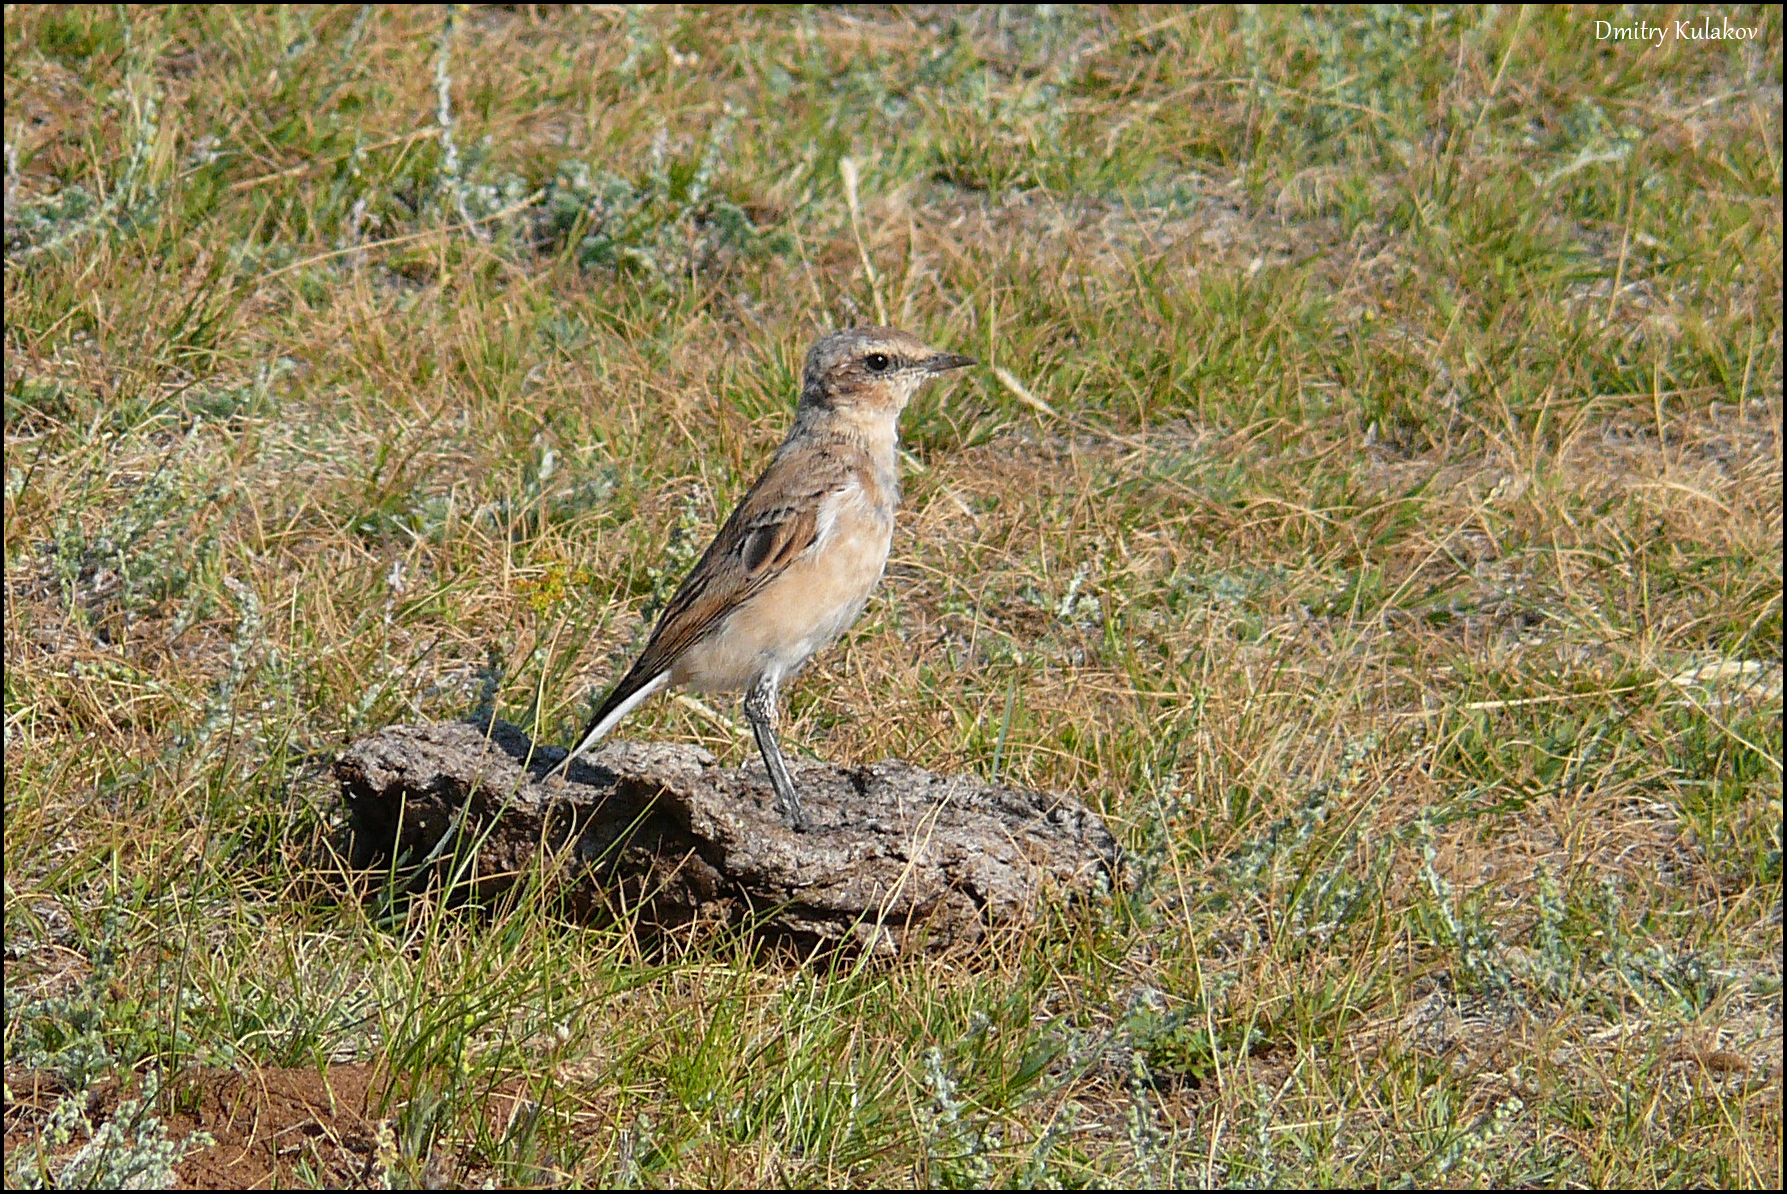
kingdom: Animalia
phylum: Chordata
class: Aves
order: Passeriformes
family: Muscicapidae
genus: Oenanthe
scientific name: Oenanthe isabellina
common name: Isabelline wheatear
